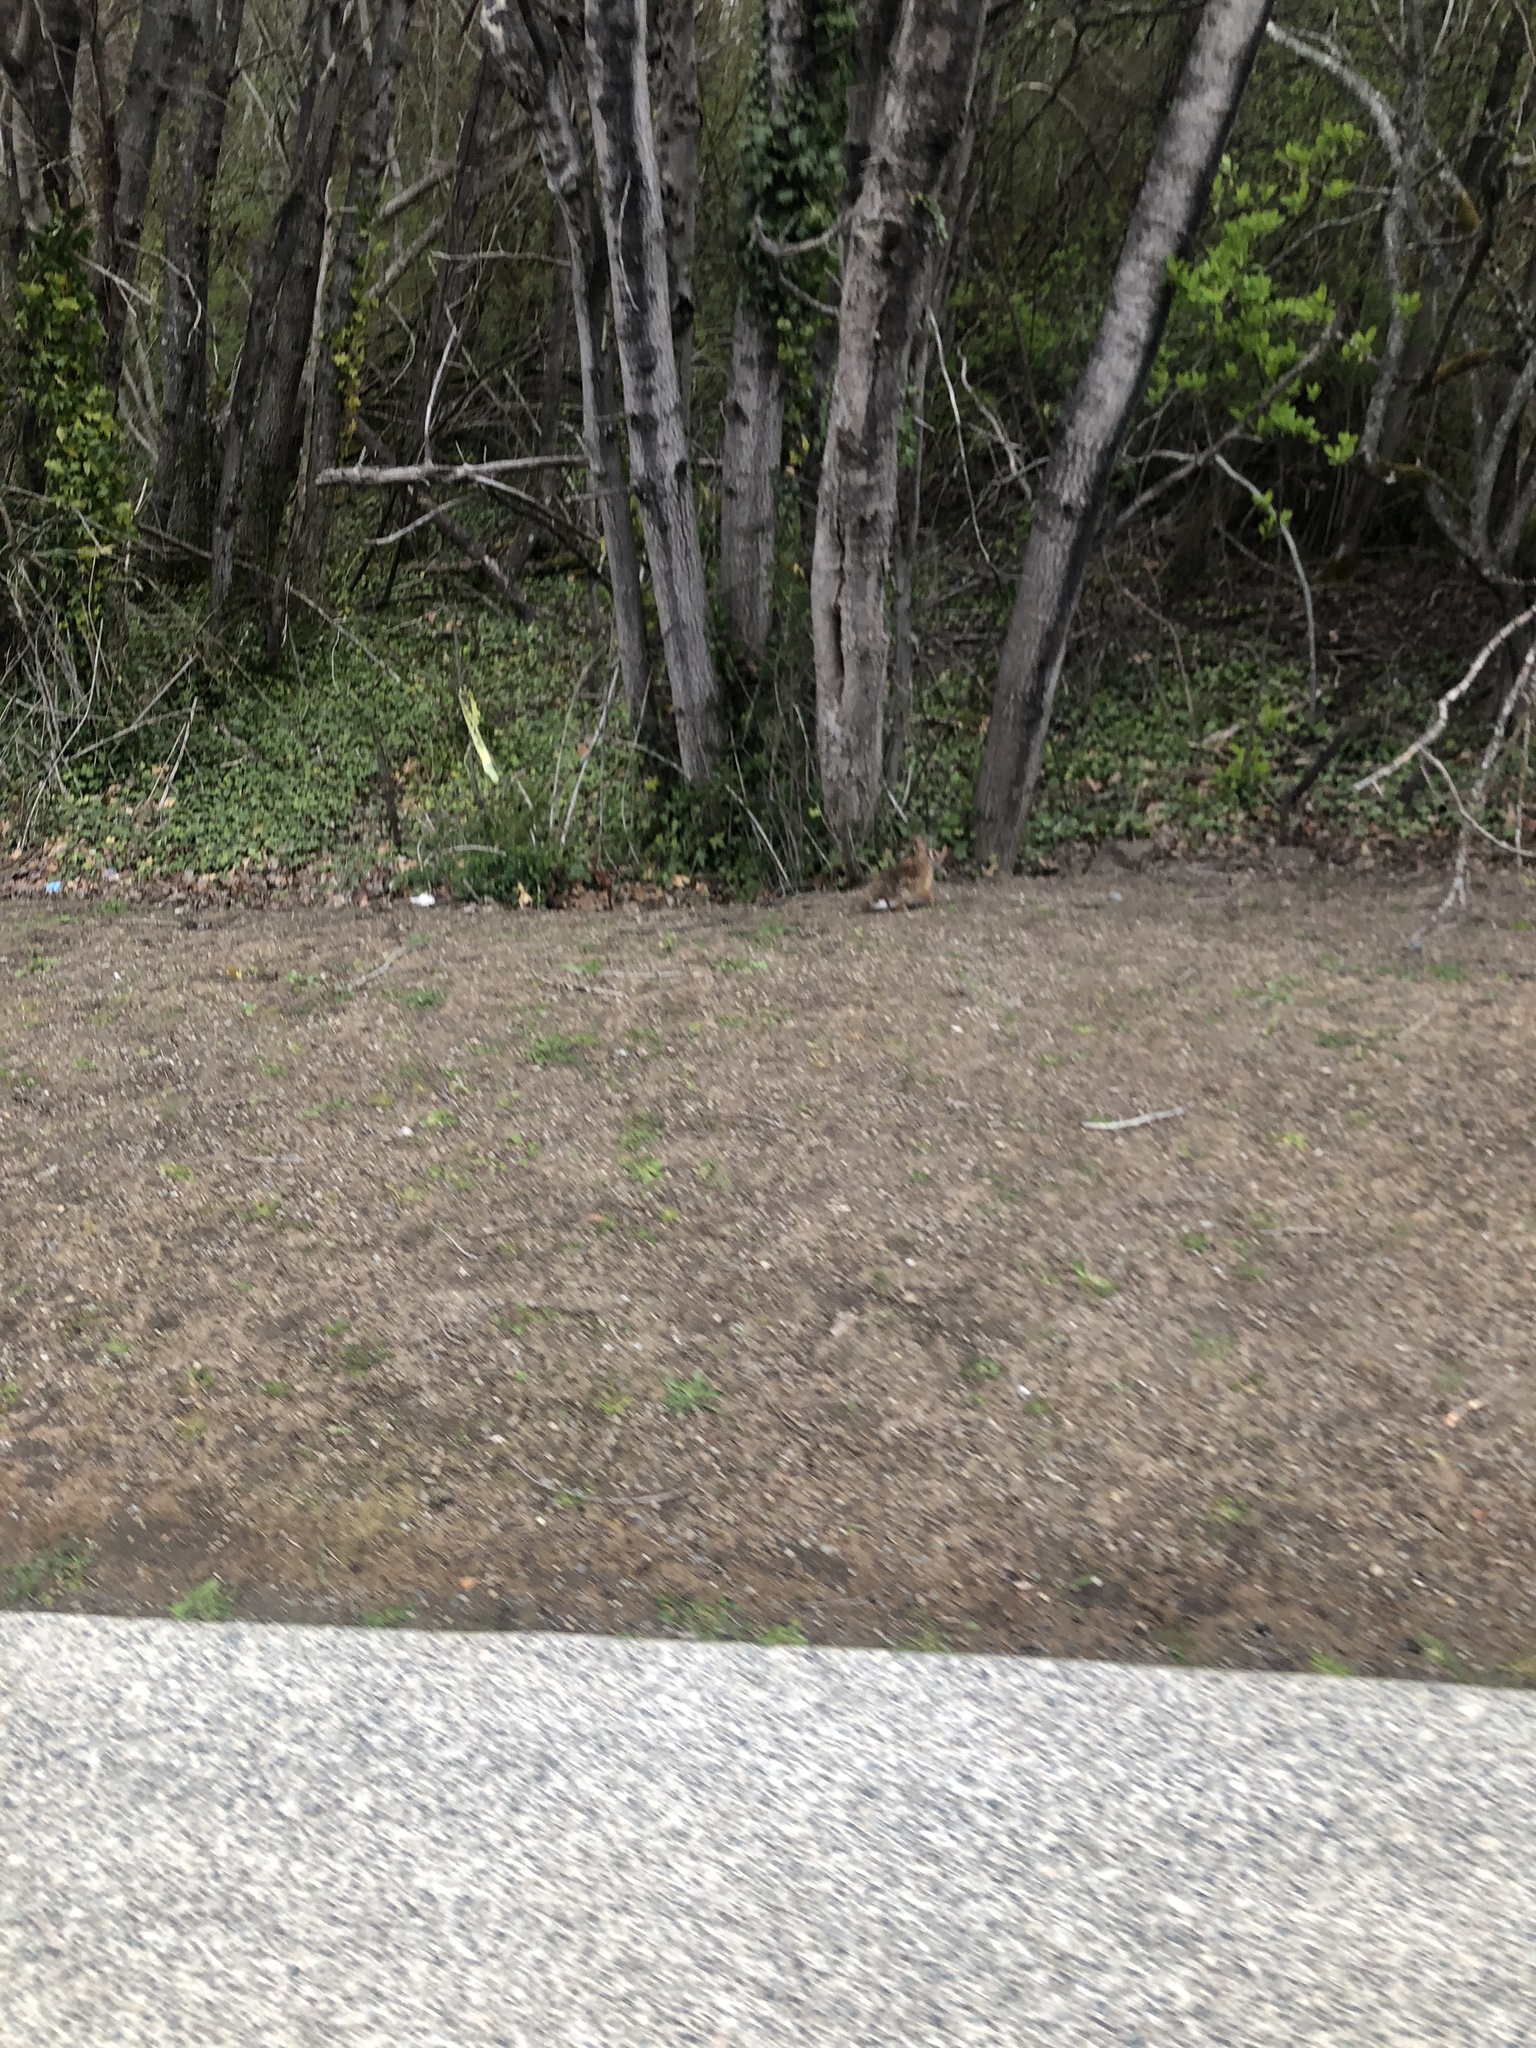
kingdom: Animalia
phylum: Chordata
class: Mammalia
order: Lagomorpha
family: Leporidae
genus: Sylvilagus
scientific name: Sylvilagus floridanus
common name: Eastern cottontail
